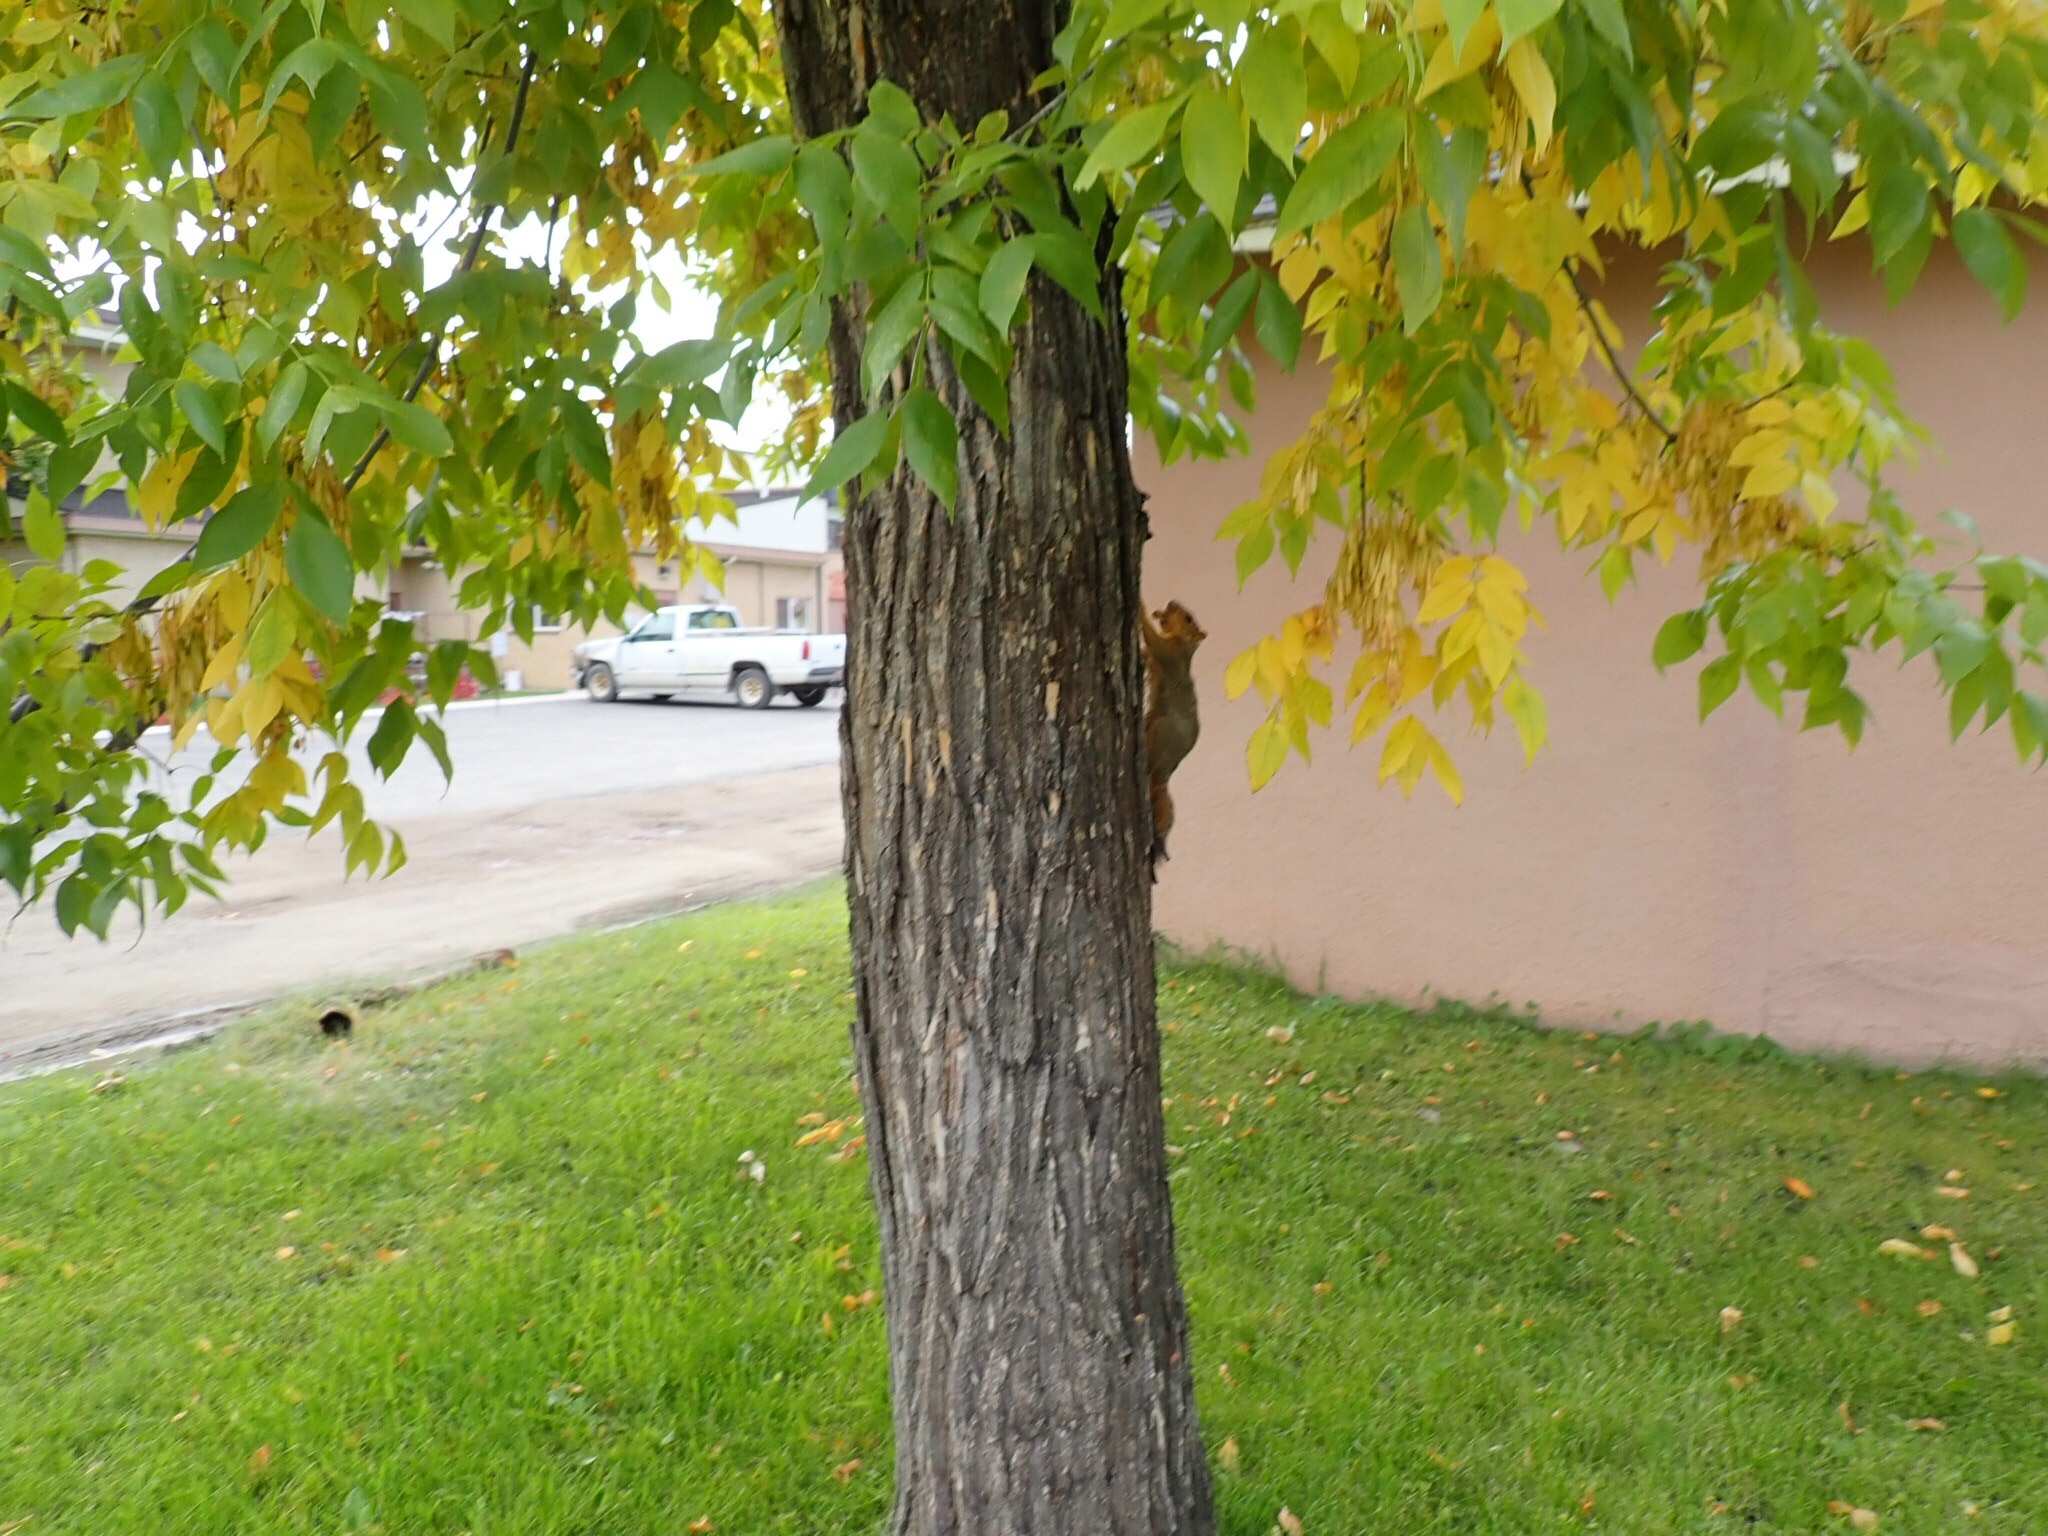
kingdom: Animalia
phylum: Chordata
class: Mammalia
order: Rodentia
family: Sciuridae
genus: Sciurus
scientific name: Sciurus niger
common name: Fox squirrel
